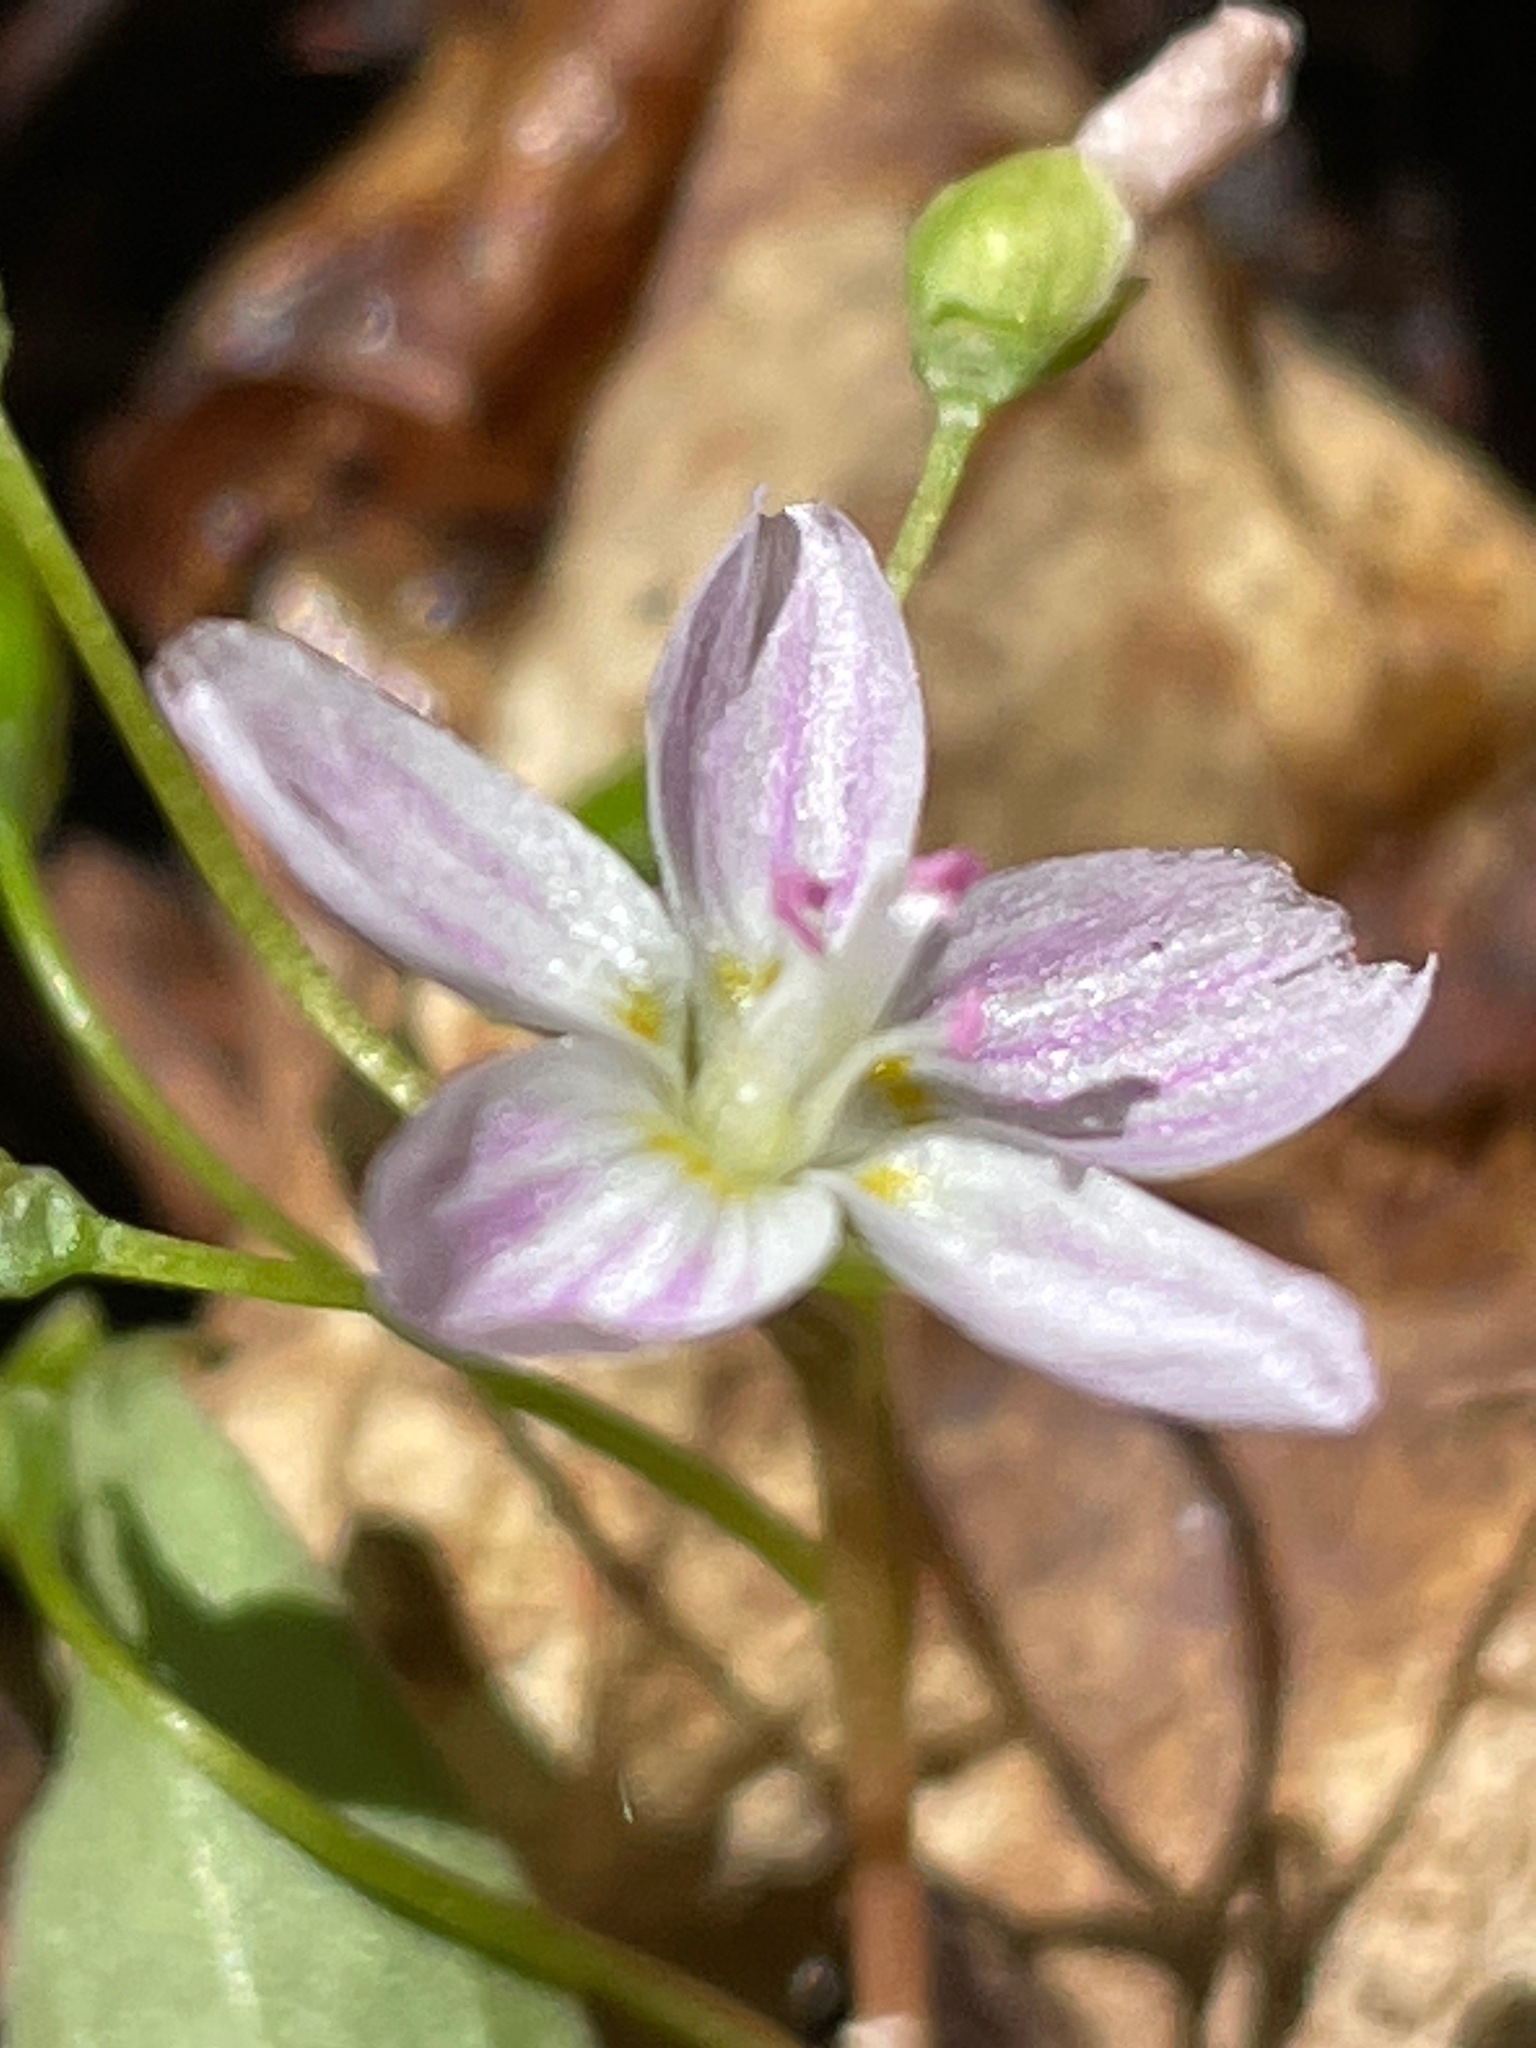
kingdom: Plantae
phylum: Tracheophyta
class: Magnoliopsida
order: Caryophyllales
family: Montiaceae
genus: Claytonia
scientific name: Claytonia caroliniana
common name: Carolina spring beauty
